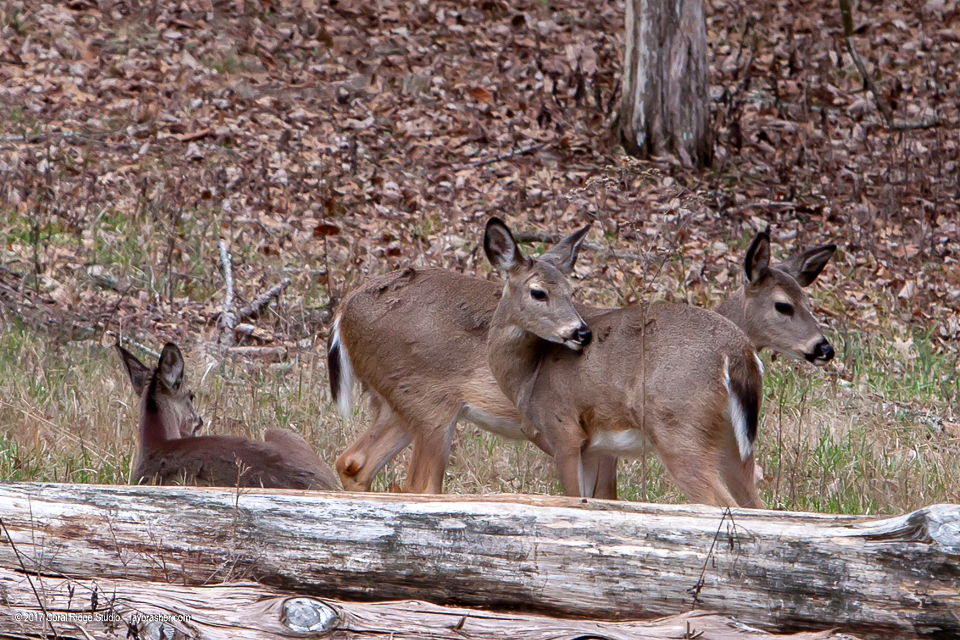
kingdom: Animalia
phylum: Chordata
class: Mammalia
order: Artiodactyla
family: Cervidae
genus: Odocoileus
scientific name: Odocoileus virginianus
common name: White-tailed deer
